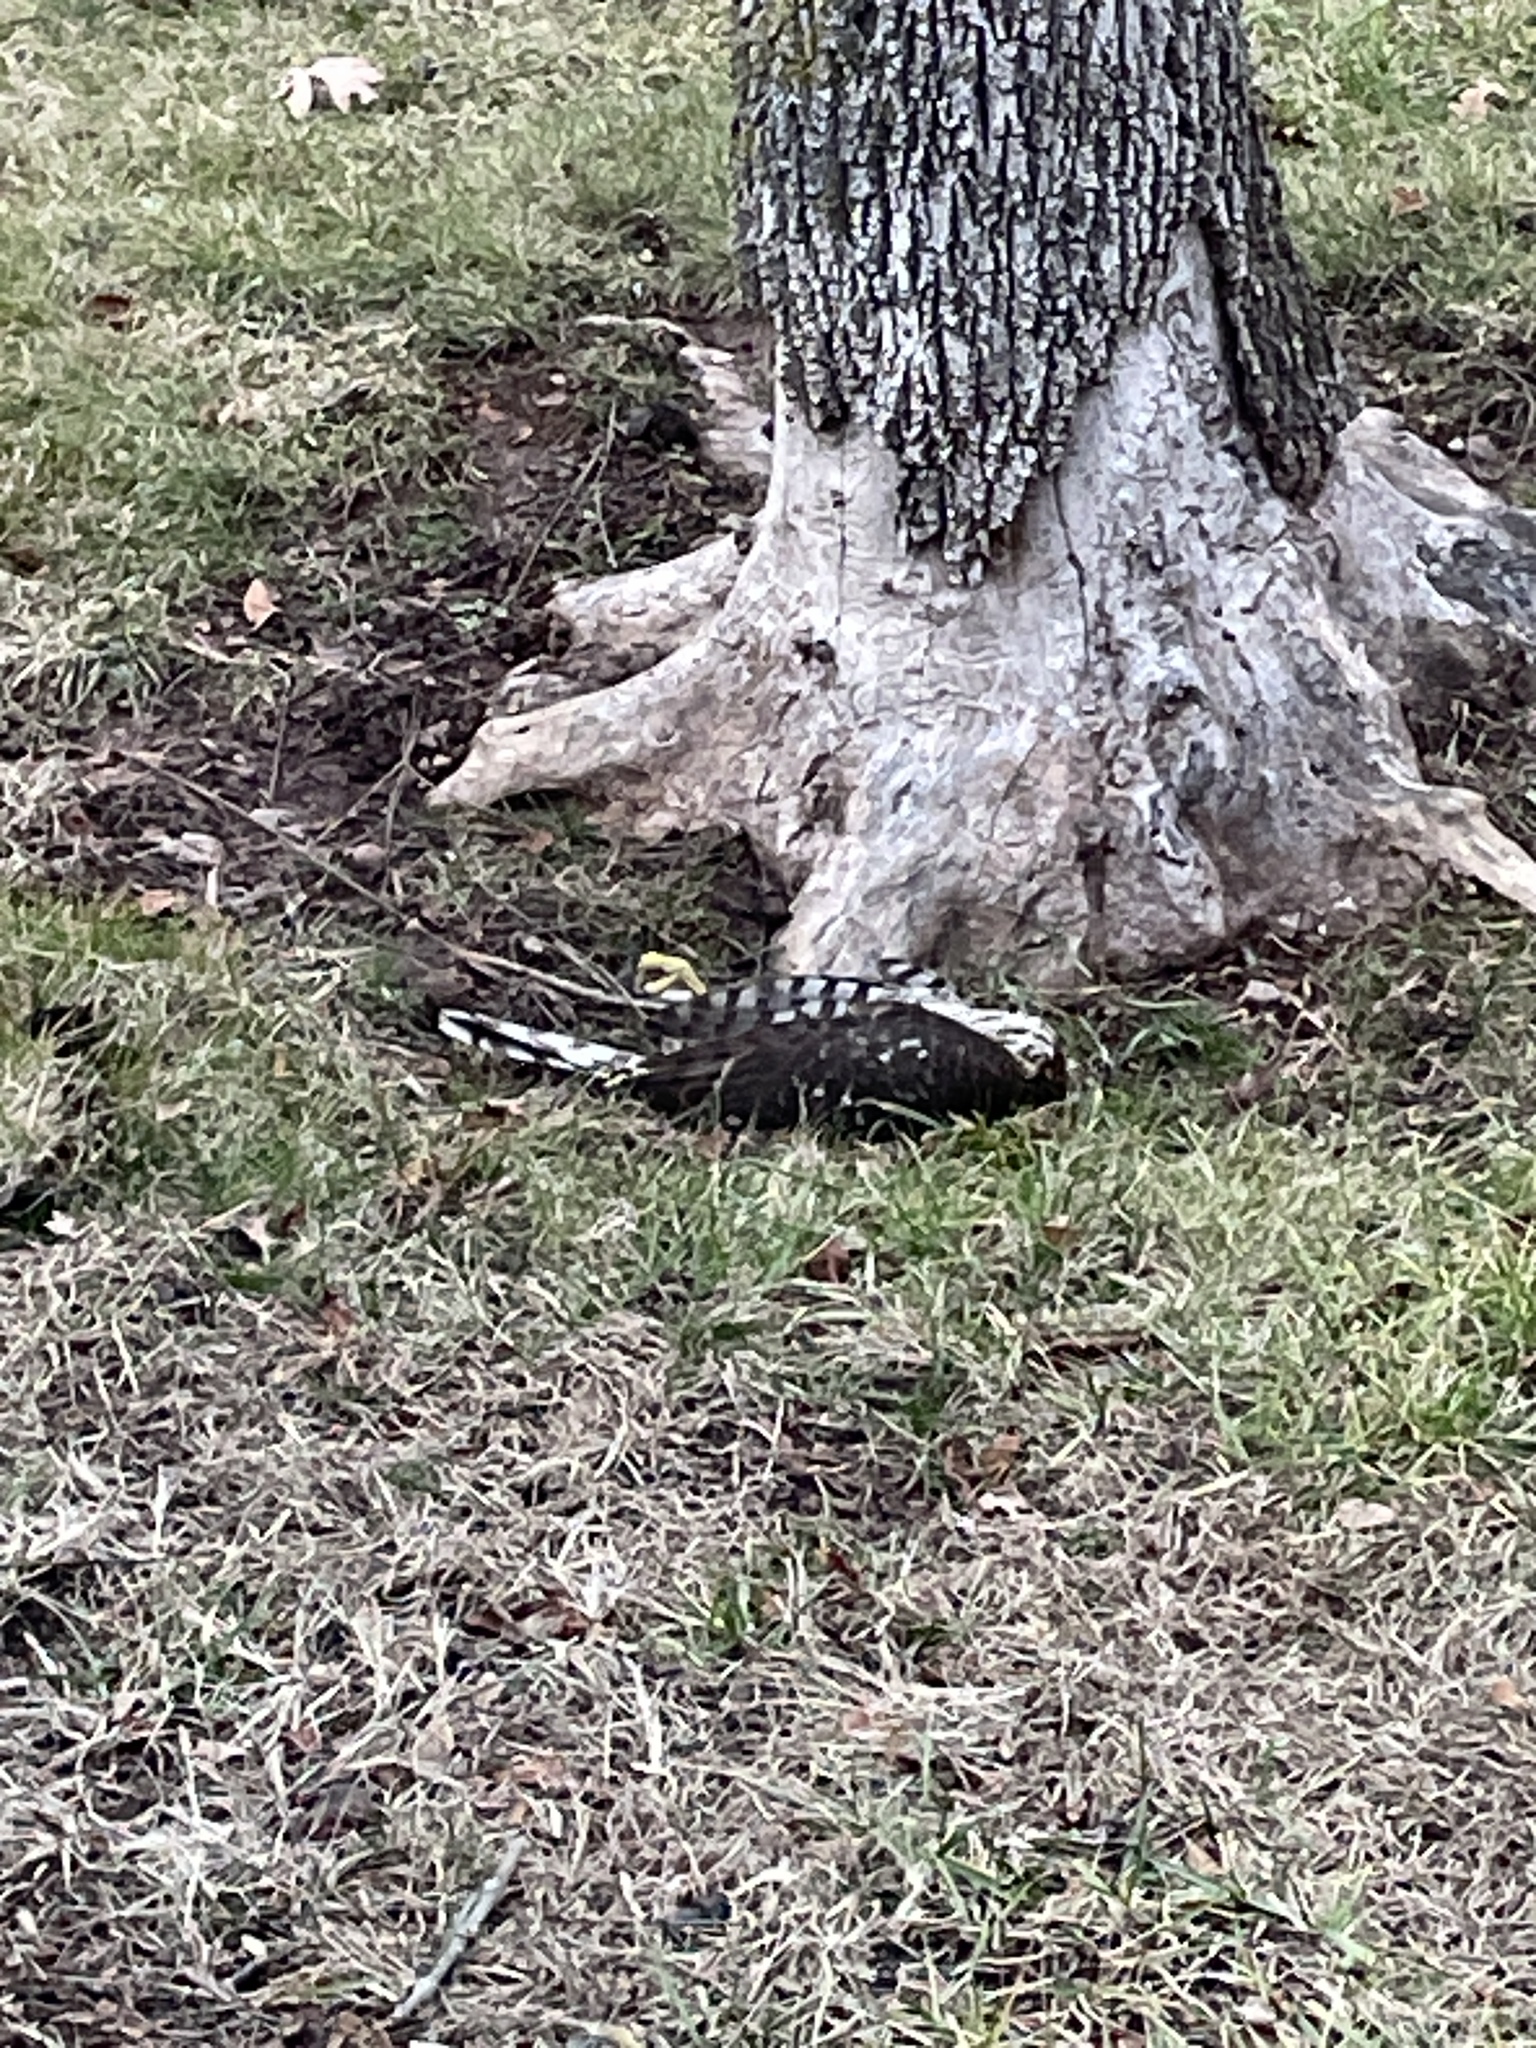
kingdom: Animalia
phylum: Chordata
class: Aves
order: Accipitriformes
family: Accipitridae
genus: Accipiter
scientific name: Accipiter cooperii
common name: Cooper's hawk
